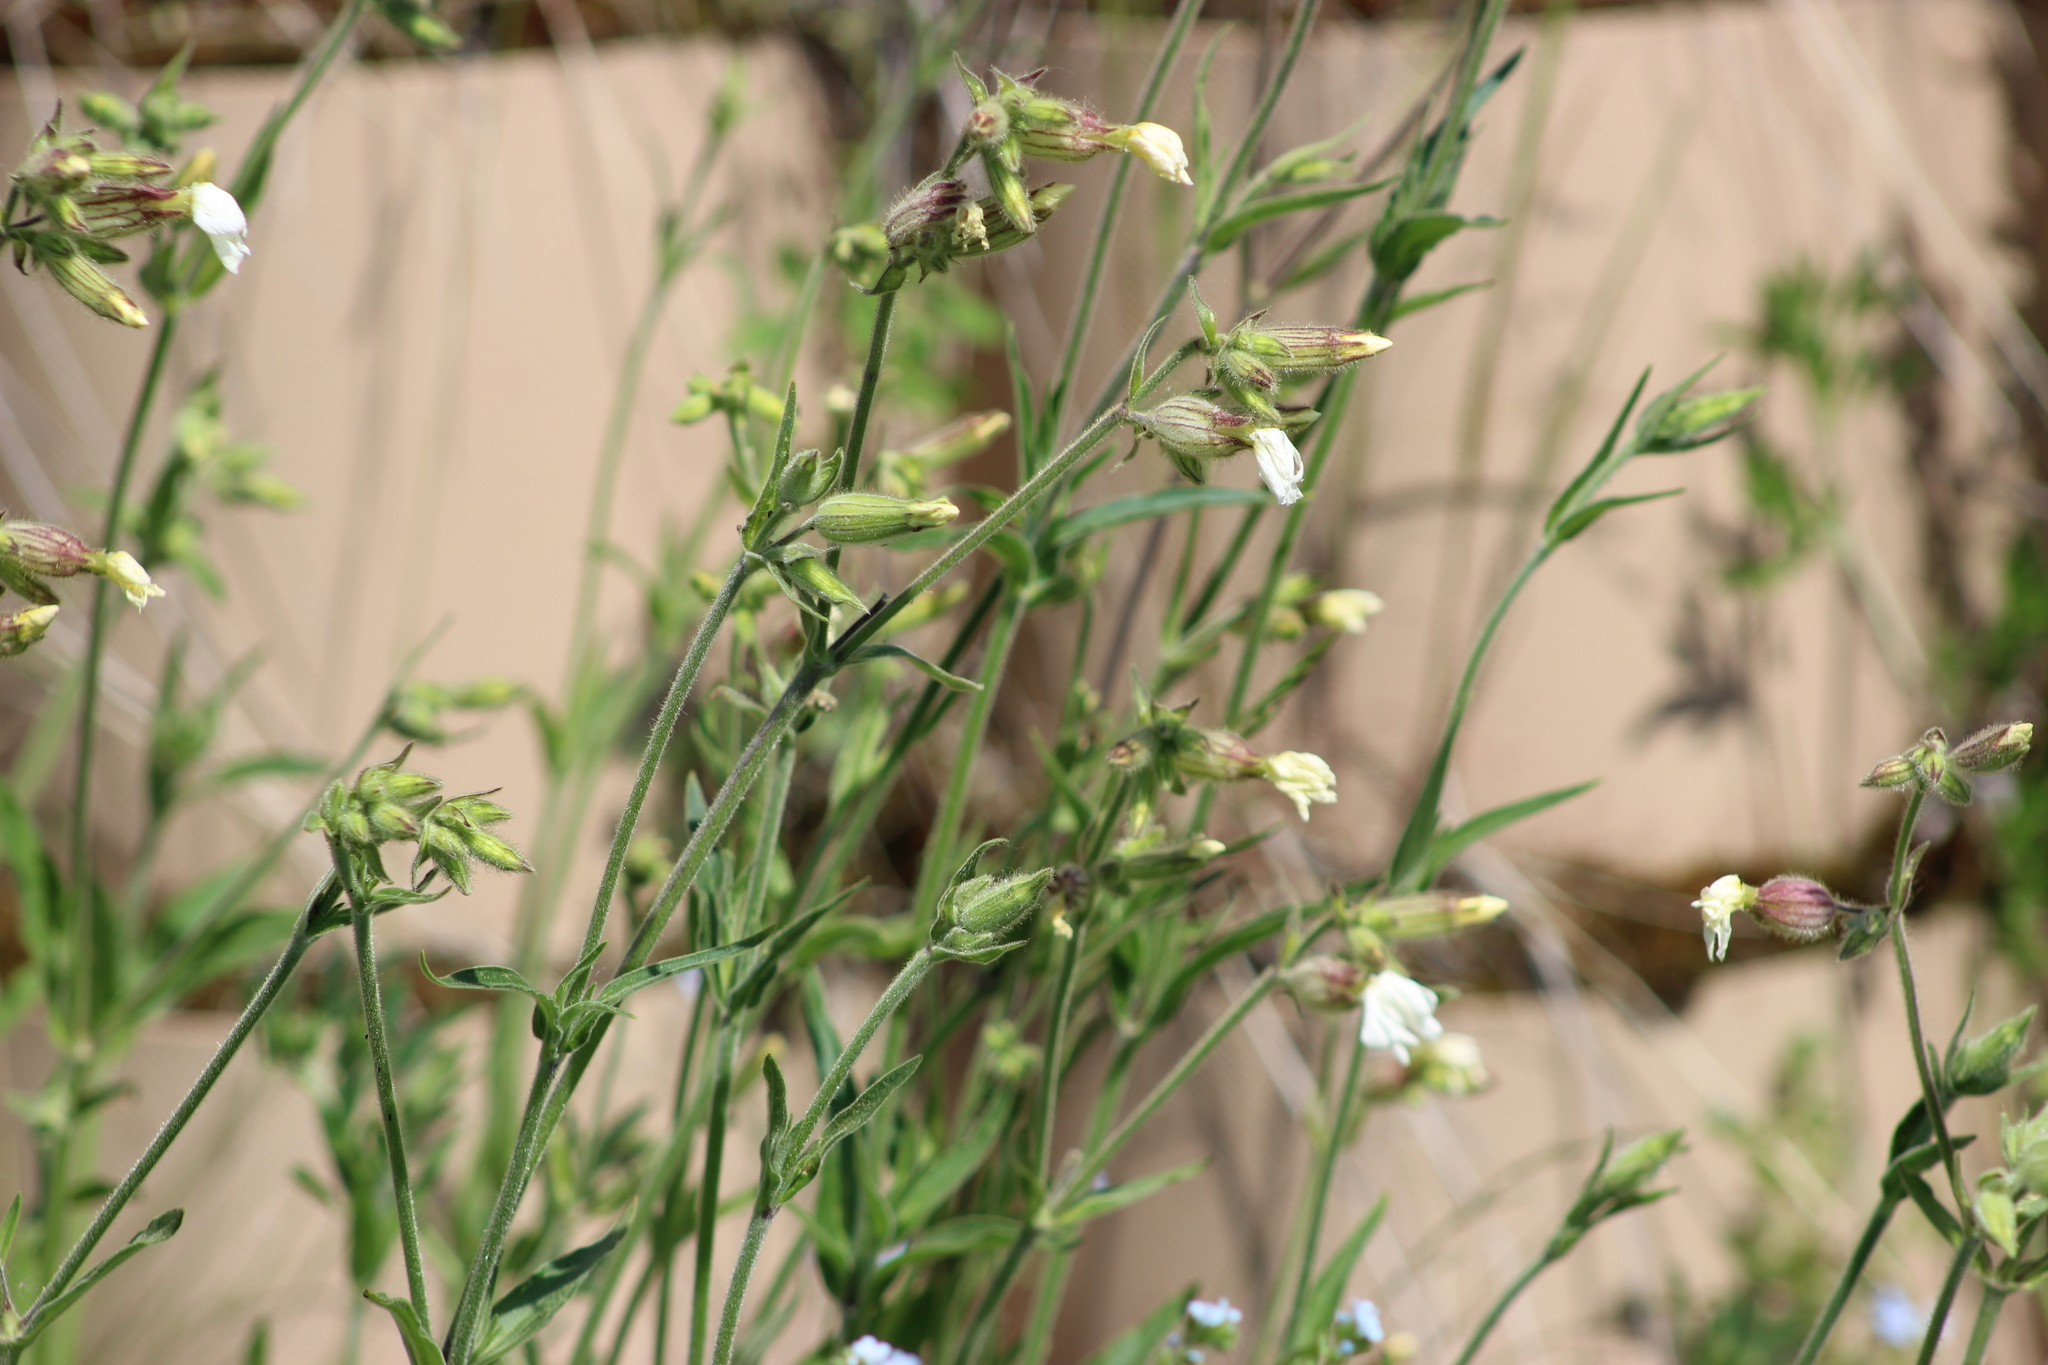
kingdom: Plantae
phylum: Tracheophyta
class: Magnoliopsida
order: Caryophyllales
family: Caryophyllaceae
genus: Silene
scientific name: Silene latifolia
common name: White campion
